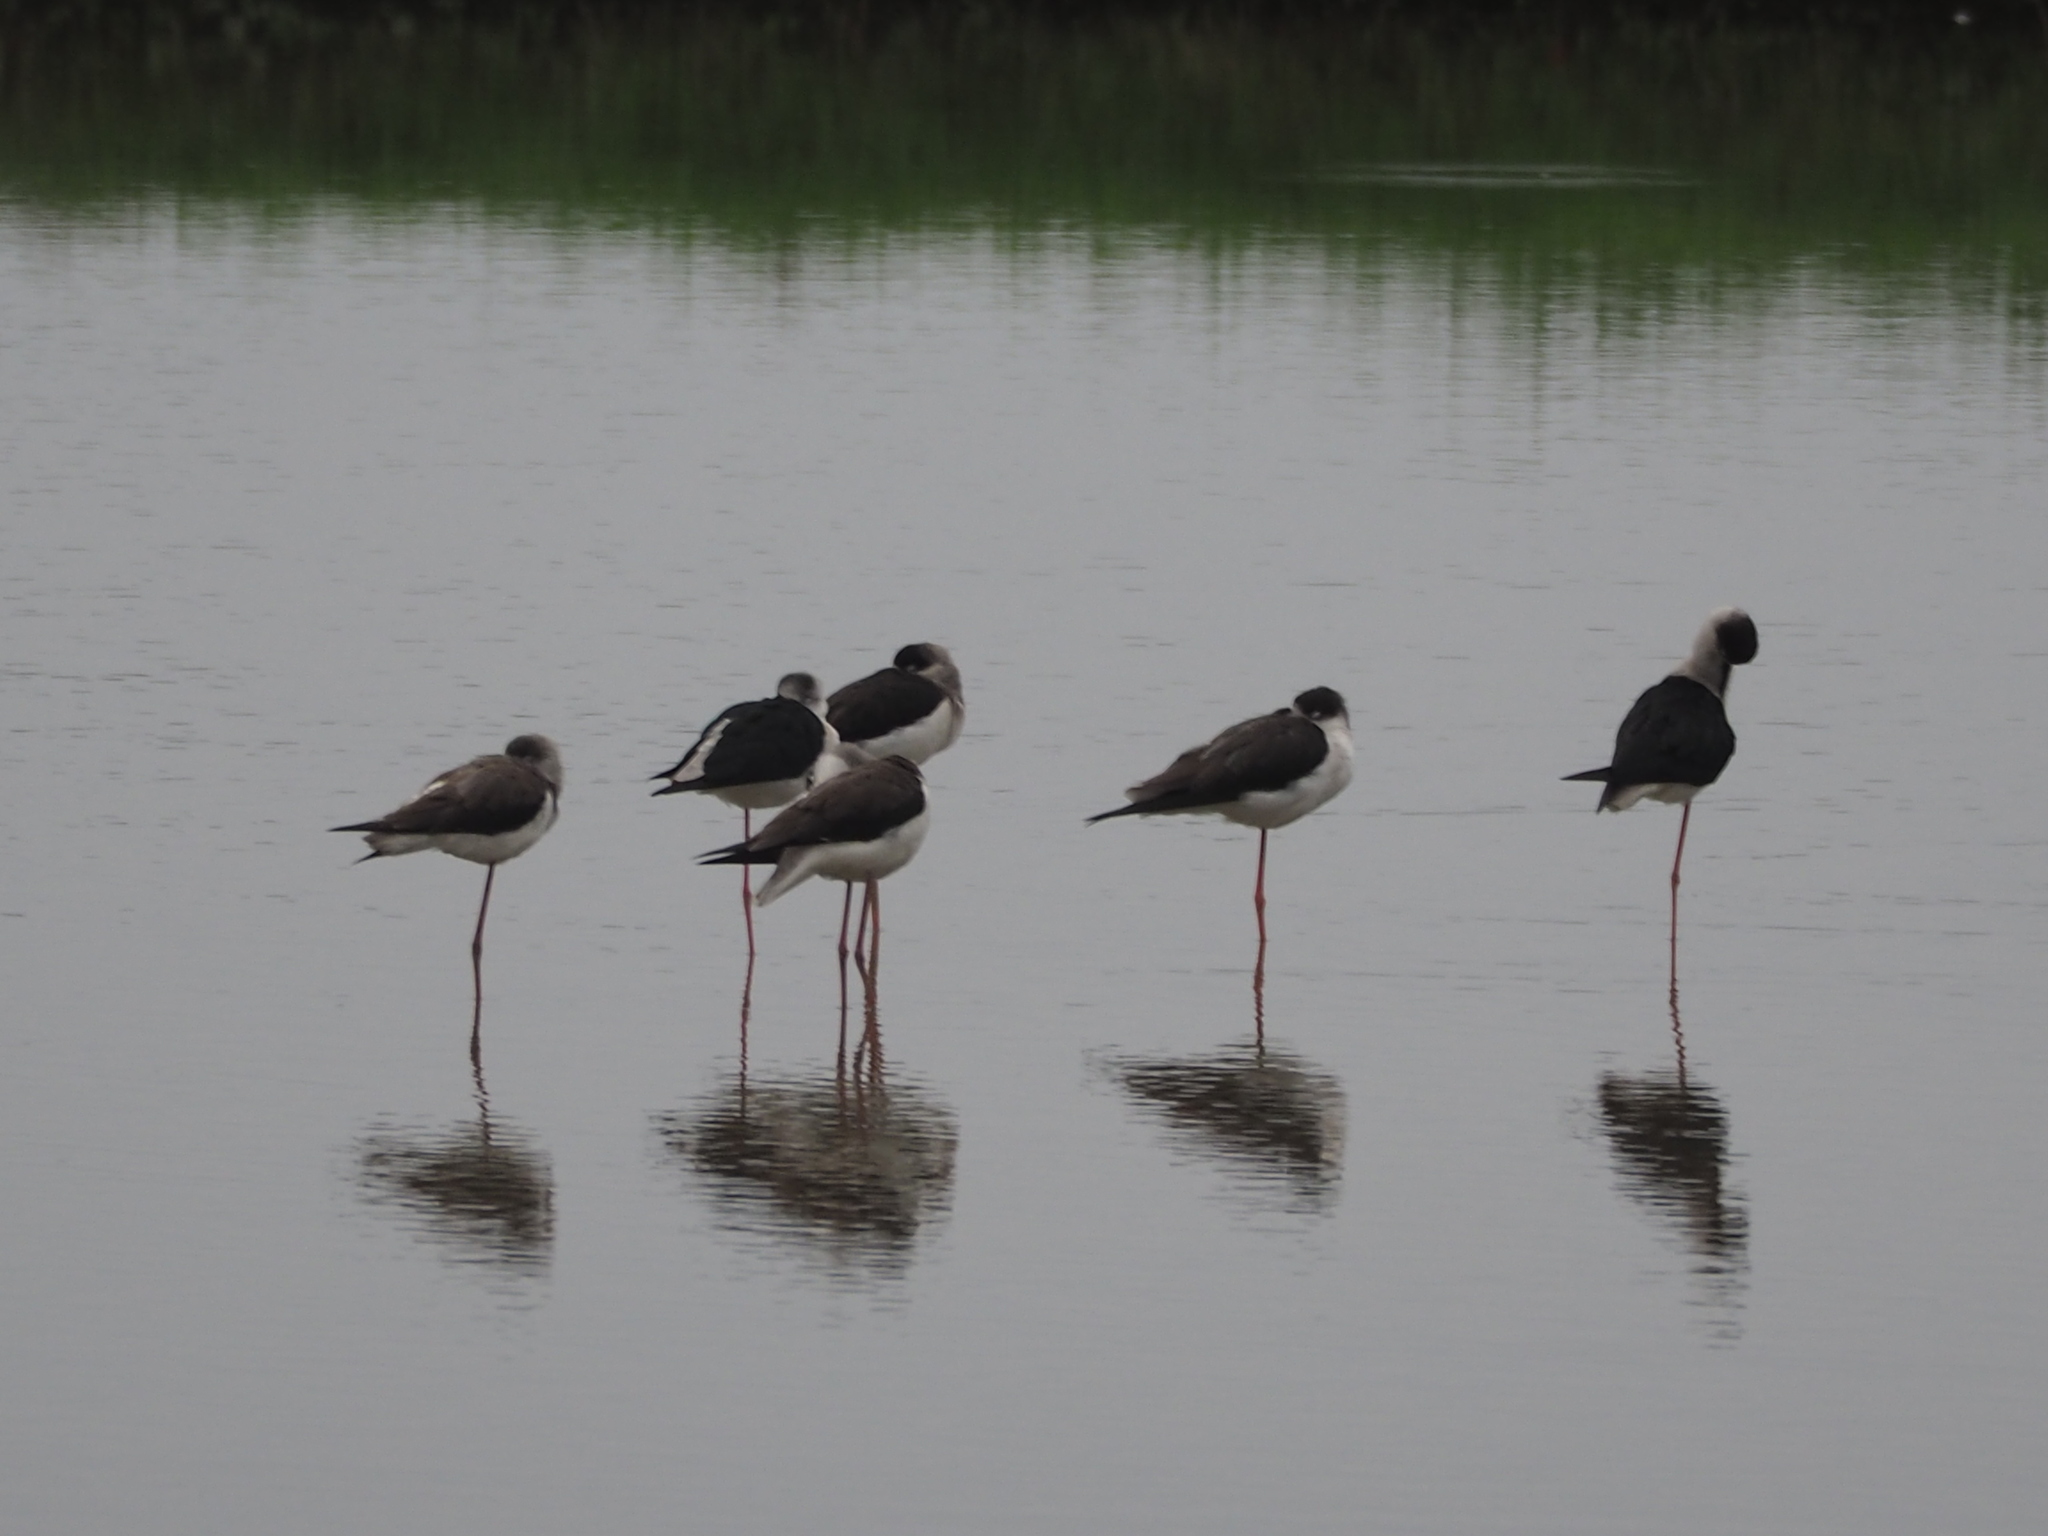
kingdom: Animalia
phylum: Chordata
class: Aves
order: Charadriiformes
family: Recurvirostridae
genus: Himantopus
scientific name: Himantopus himantopus
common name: Black-winged stilt
